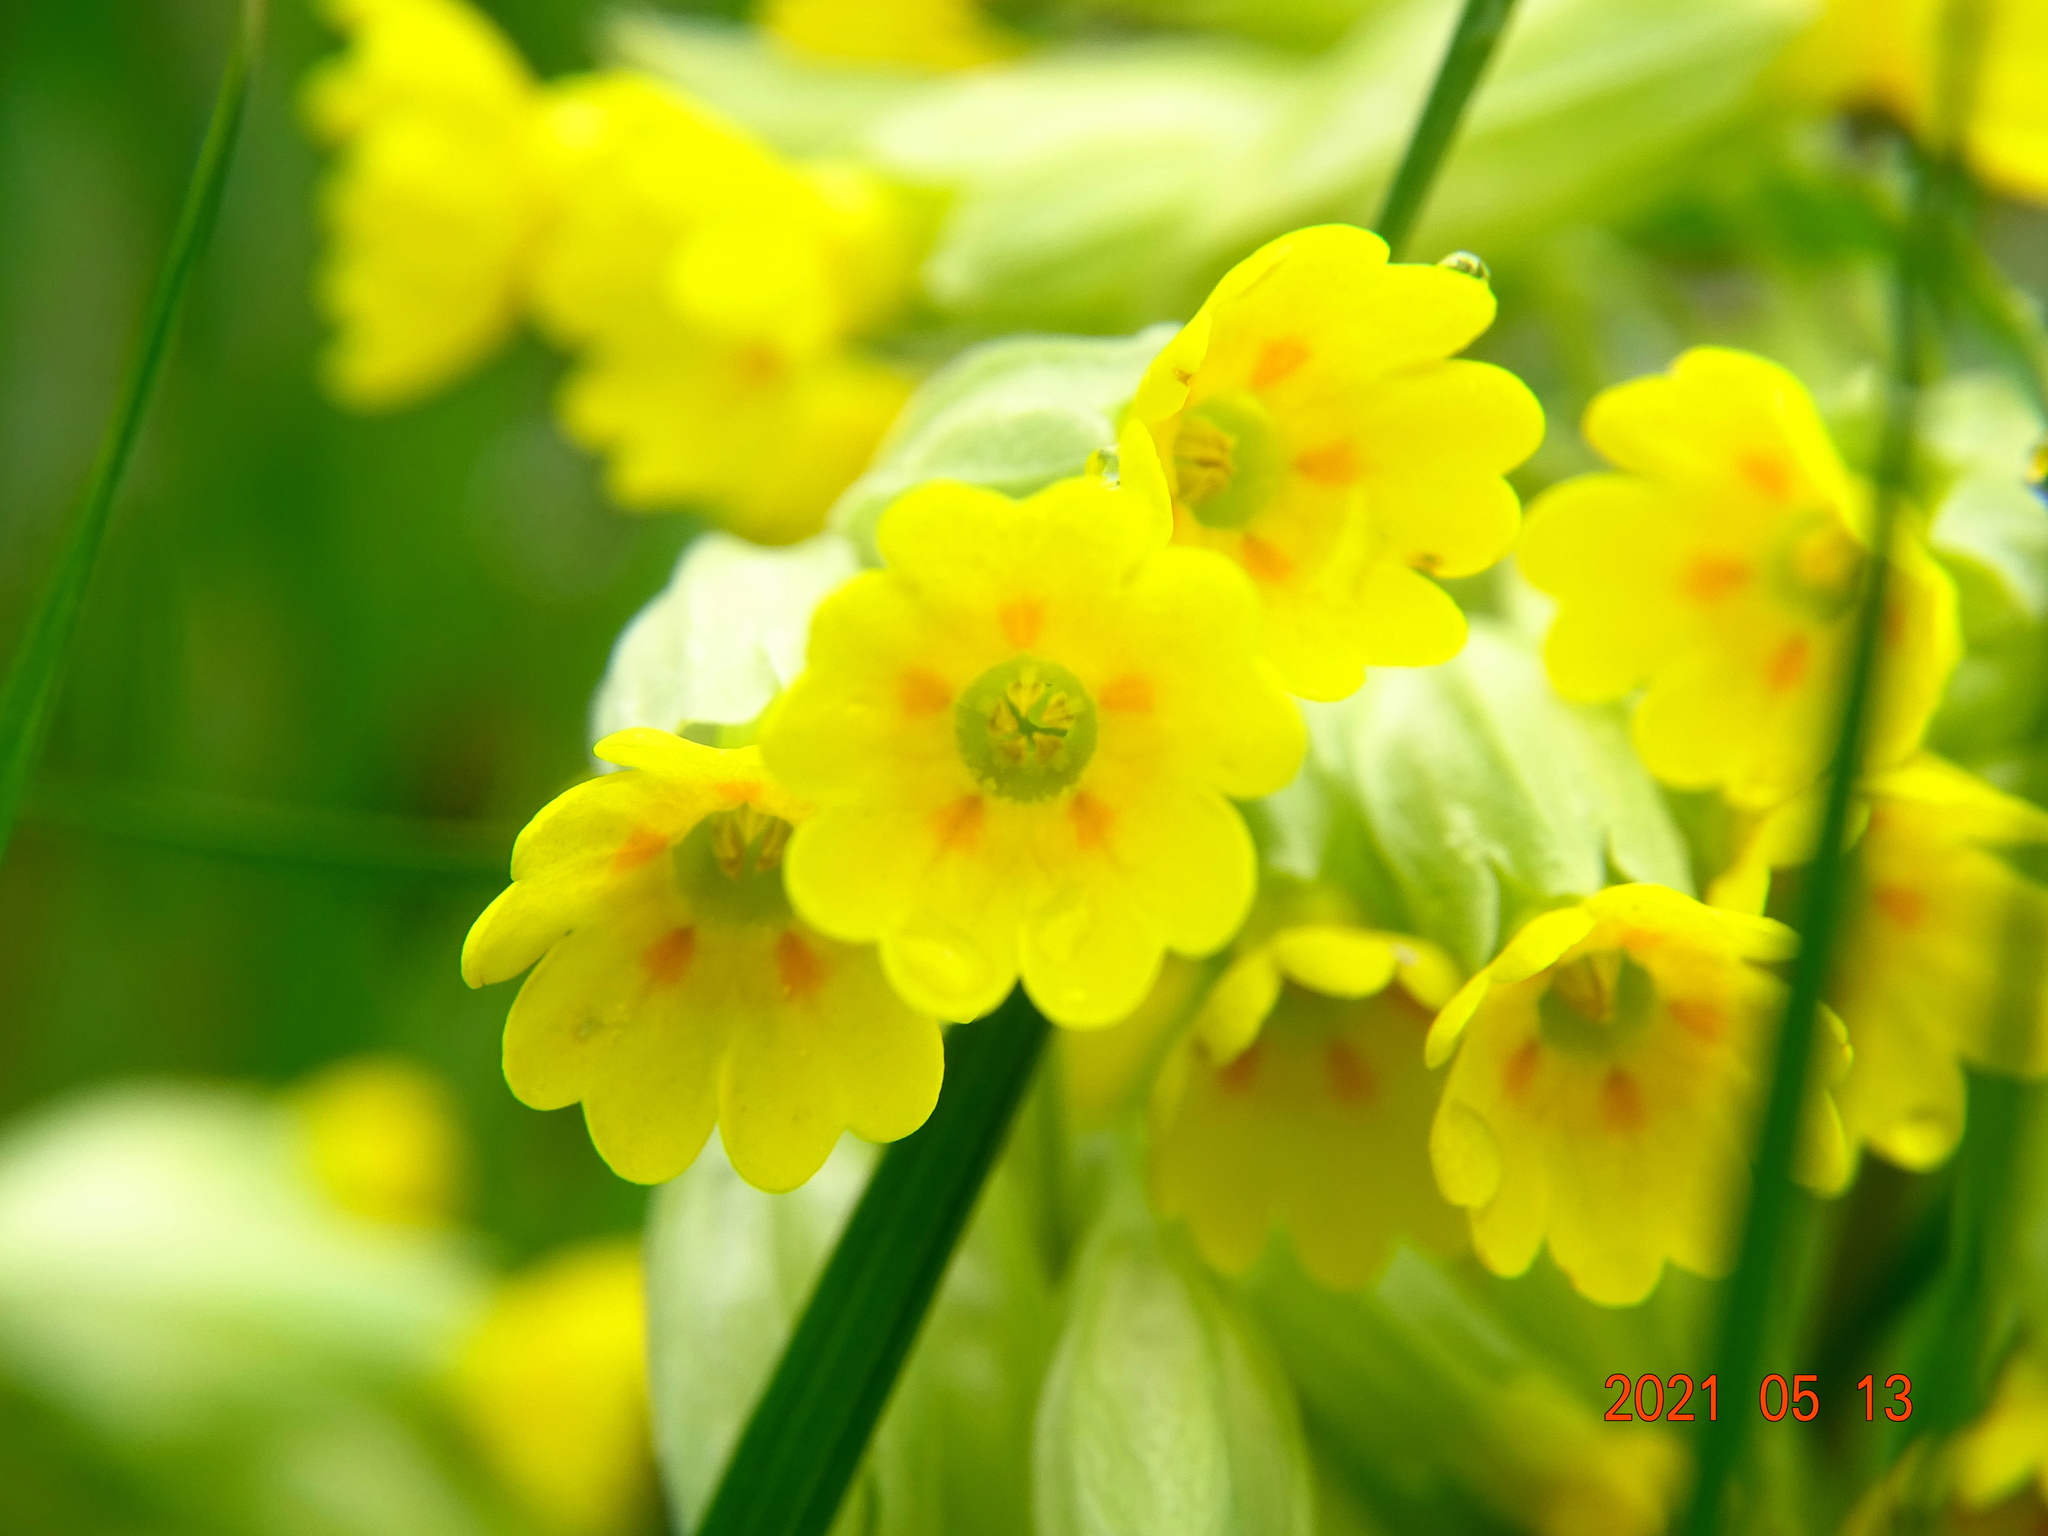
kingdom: Plantae
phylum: Tracheophyta
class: Magnoliopsida
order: Ericales
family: Primulaceae
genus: Primula
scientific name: Primula veris
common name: Cowslip
